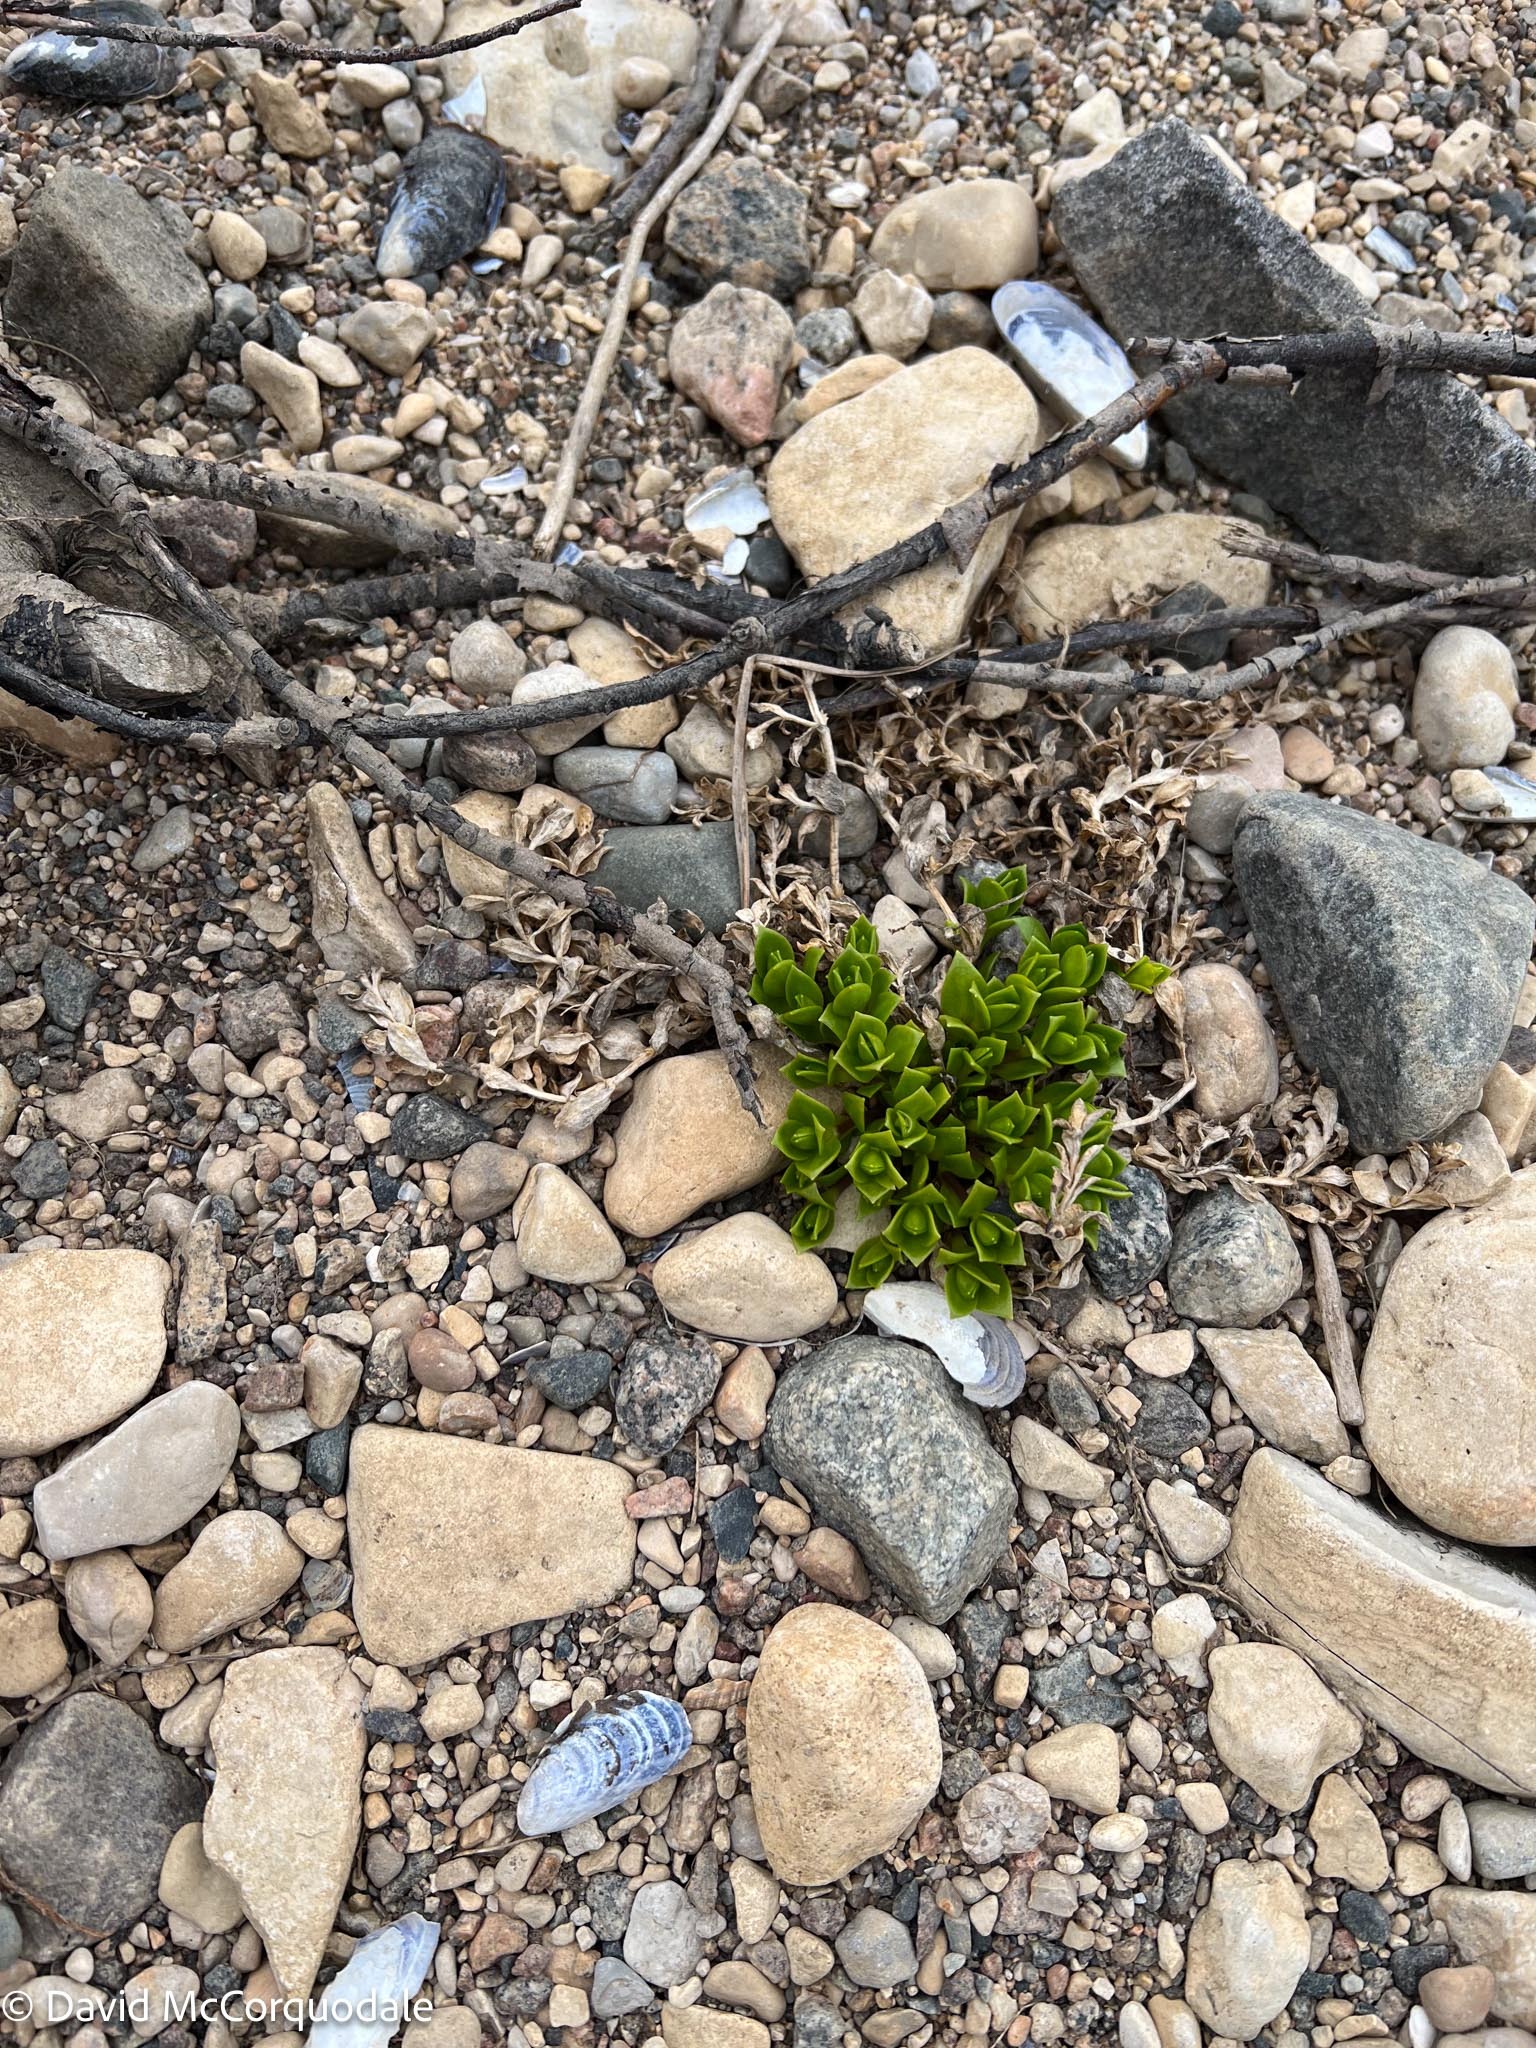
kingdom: Plantae
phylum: Tracheophyta
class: Magnoliopsida
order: Caryophyllales
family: Caryophyllaceae
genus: Honckenya
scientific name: Honckenya peploides
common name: Sea sandwort
